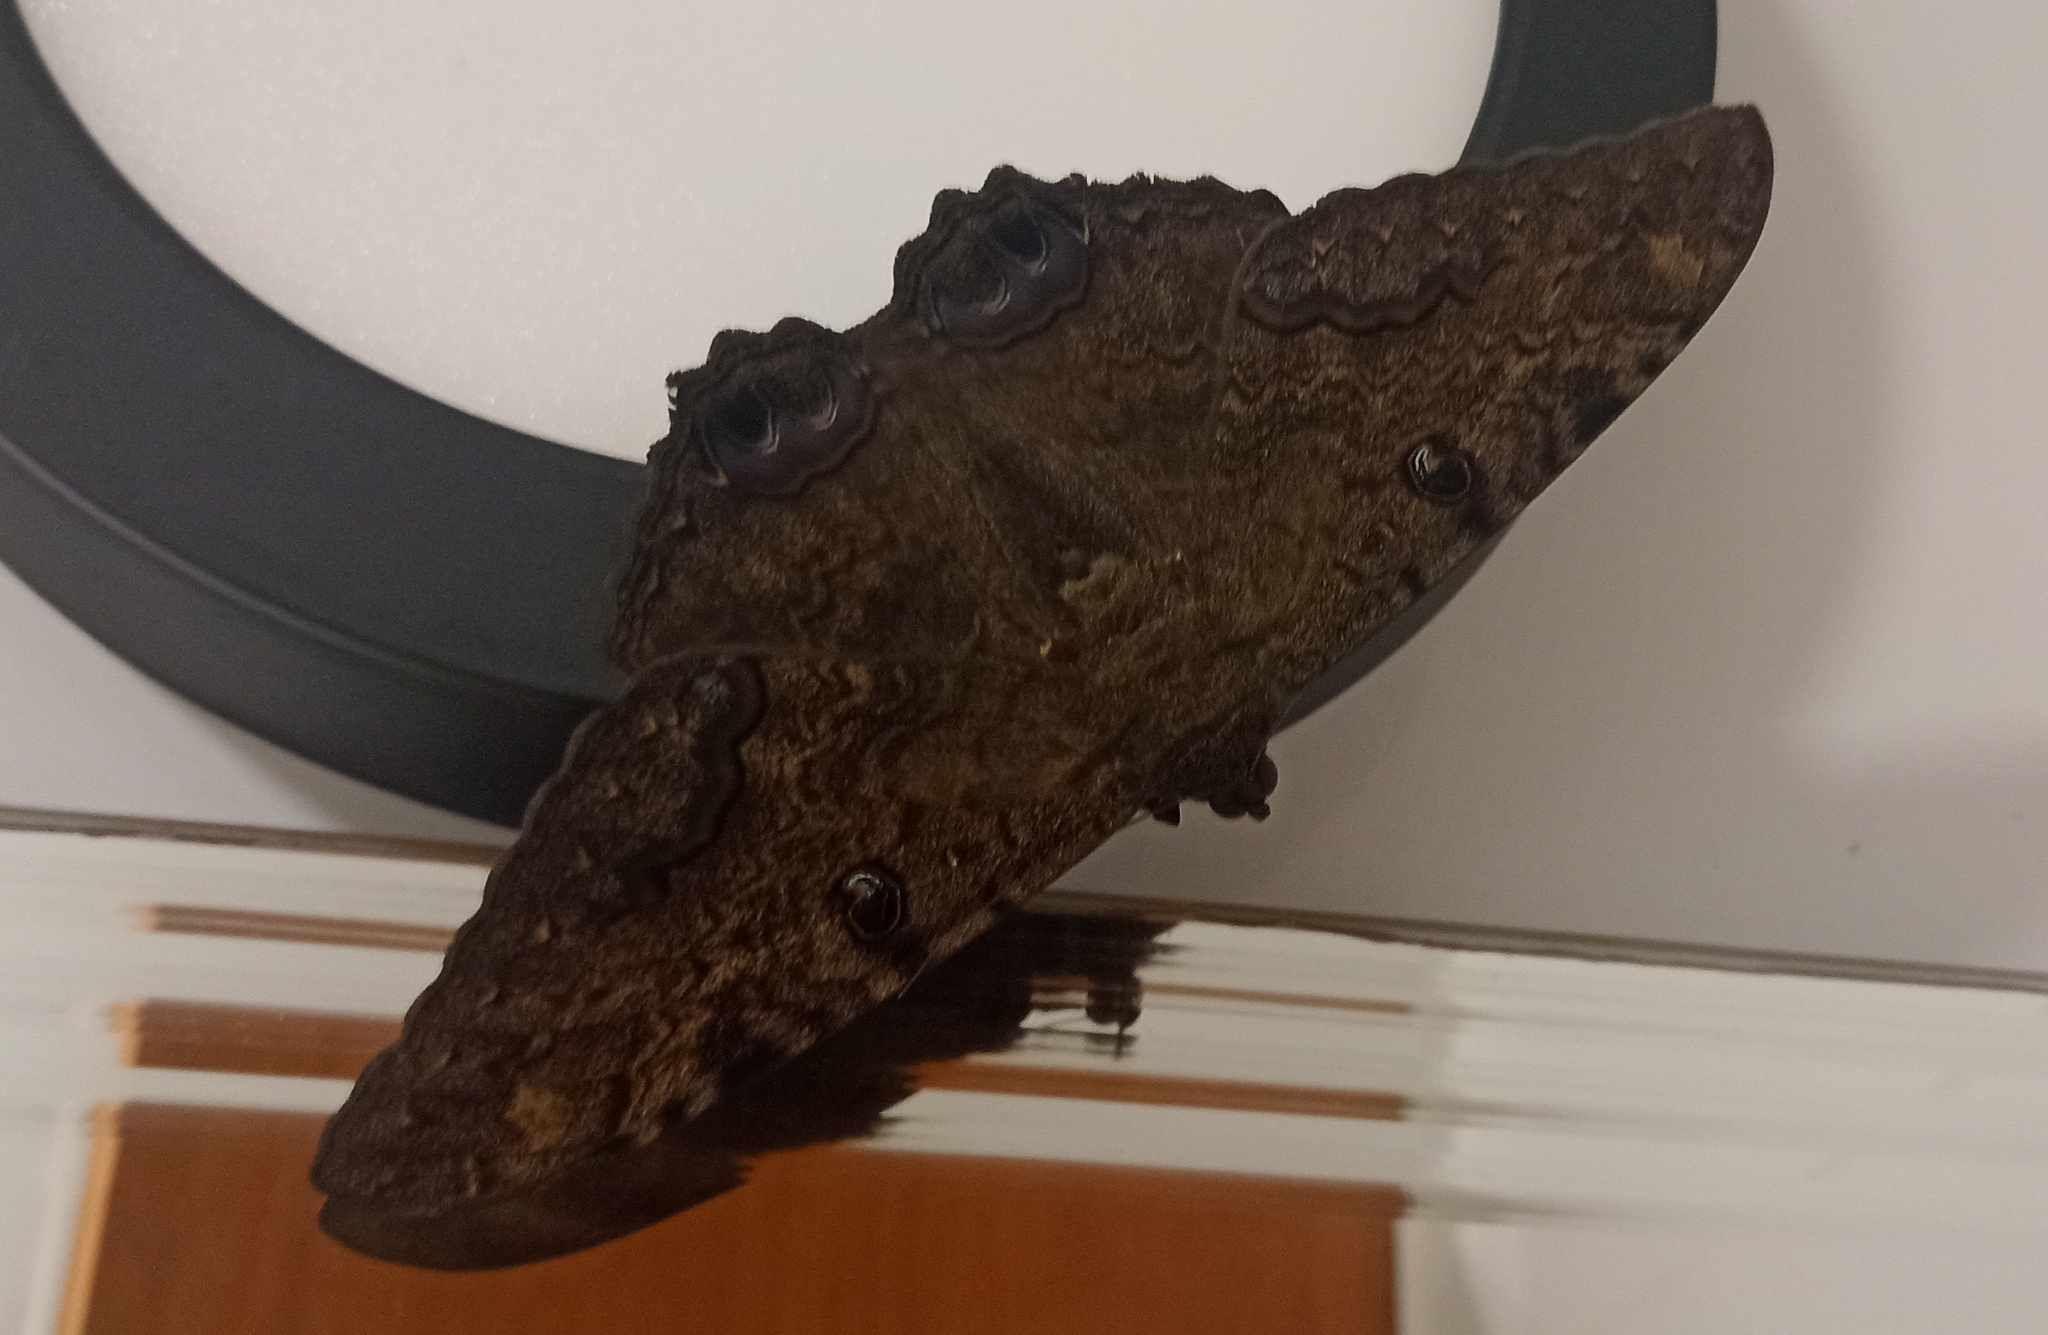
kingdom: Animalia
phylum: Arthropoda
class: Insecta
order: Lepidoptera
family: Erebidae
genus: Ascalapha
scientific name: Ascalapha odorata
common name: Black witch
